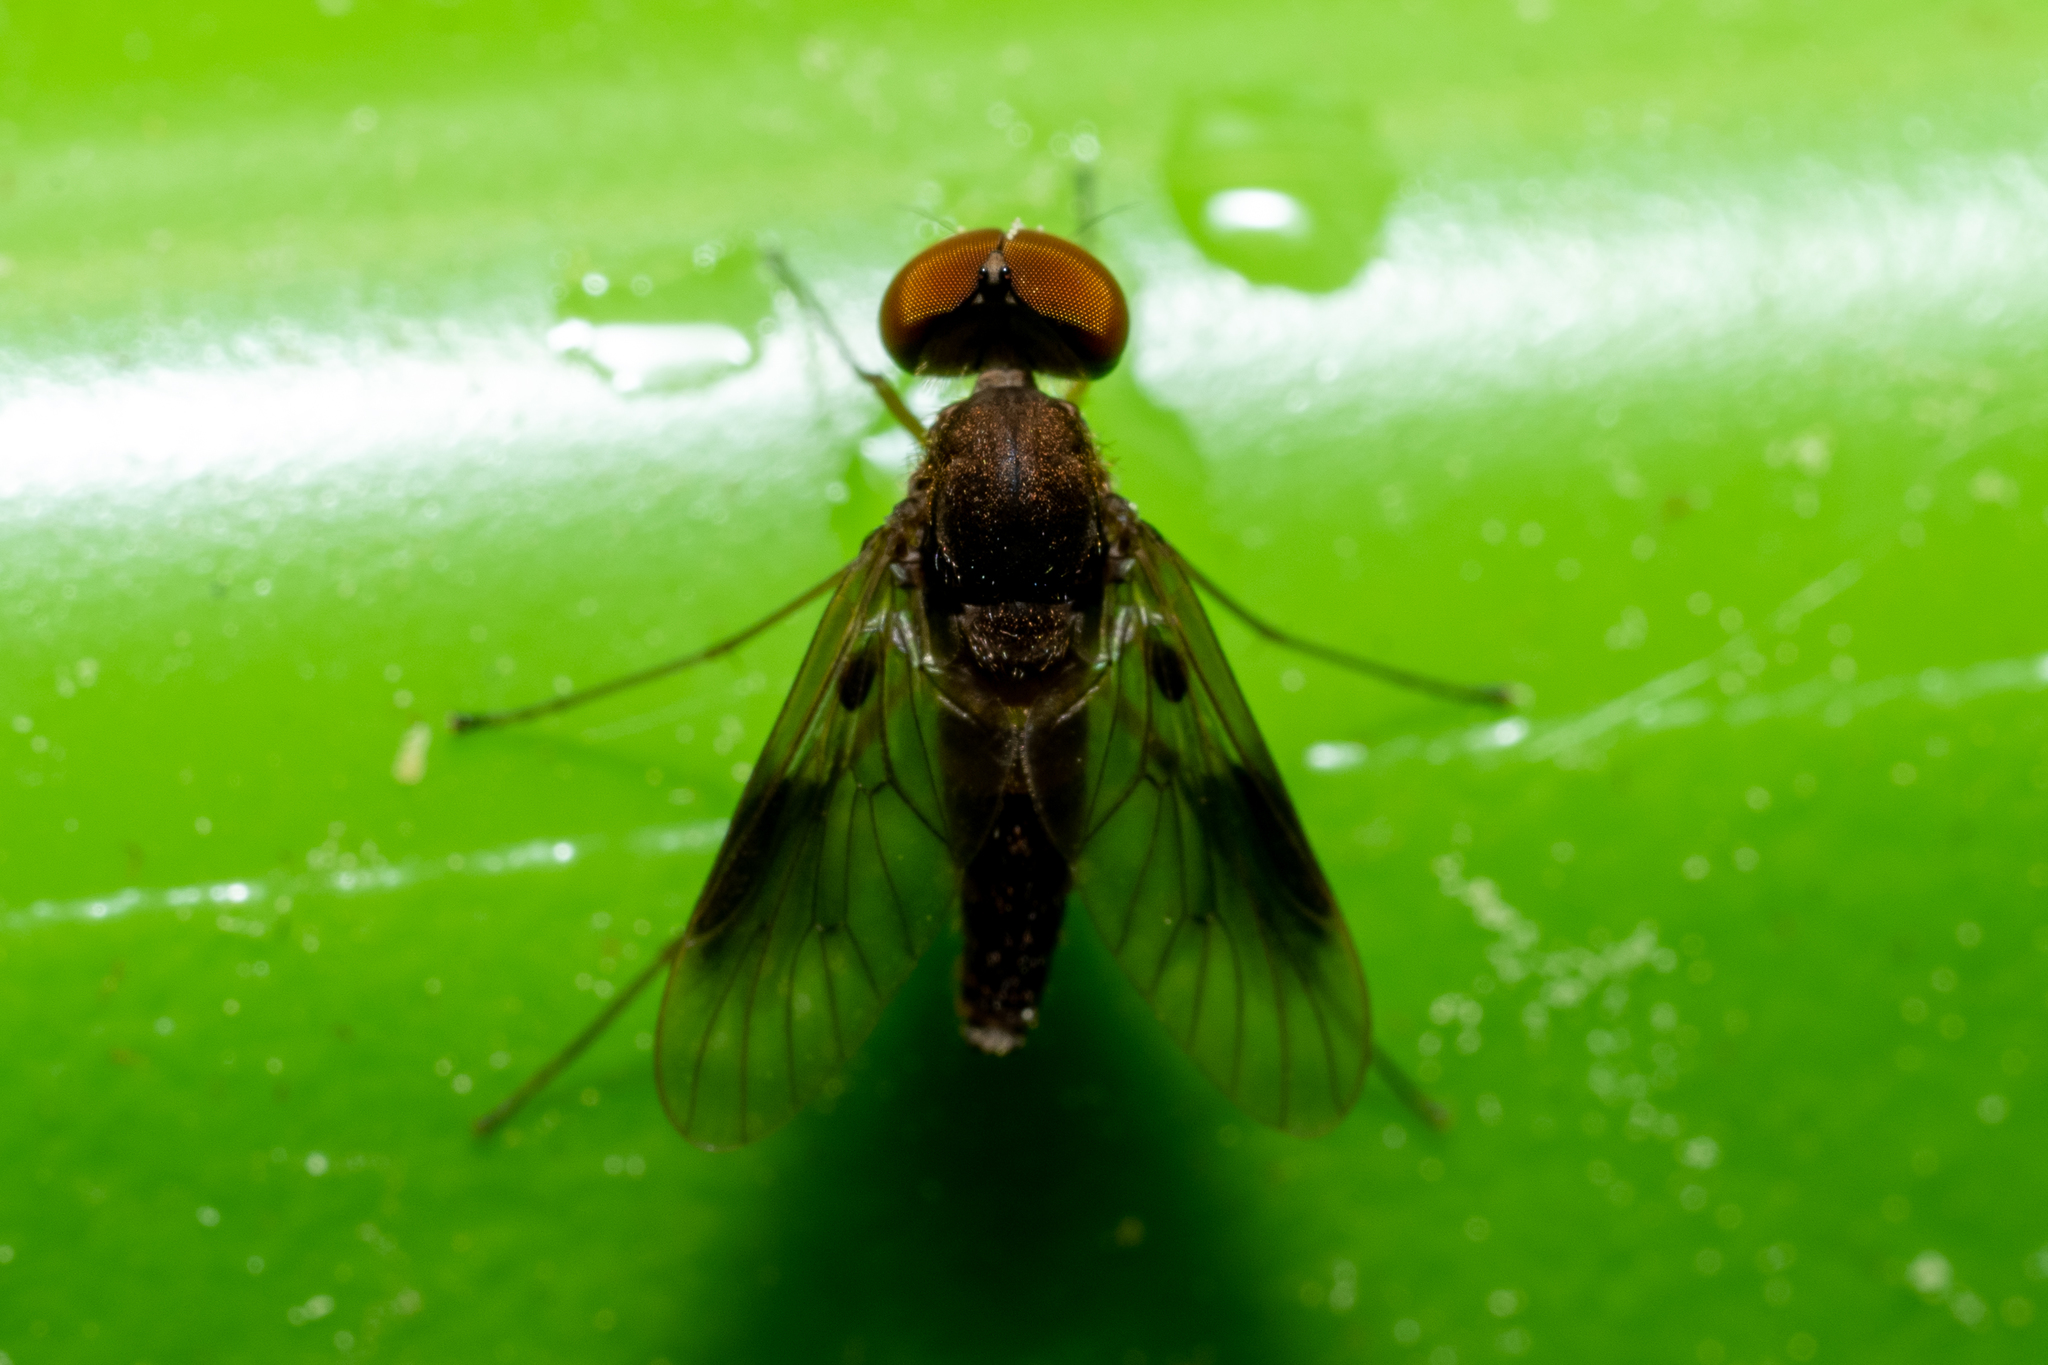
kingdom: Animalia
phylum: Arthropoda
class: Insecta
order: Diptera
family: Rhagionidae
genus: Chrysopilus
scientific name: Chrysopilus quadratus
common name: Quadrate snipe fly
